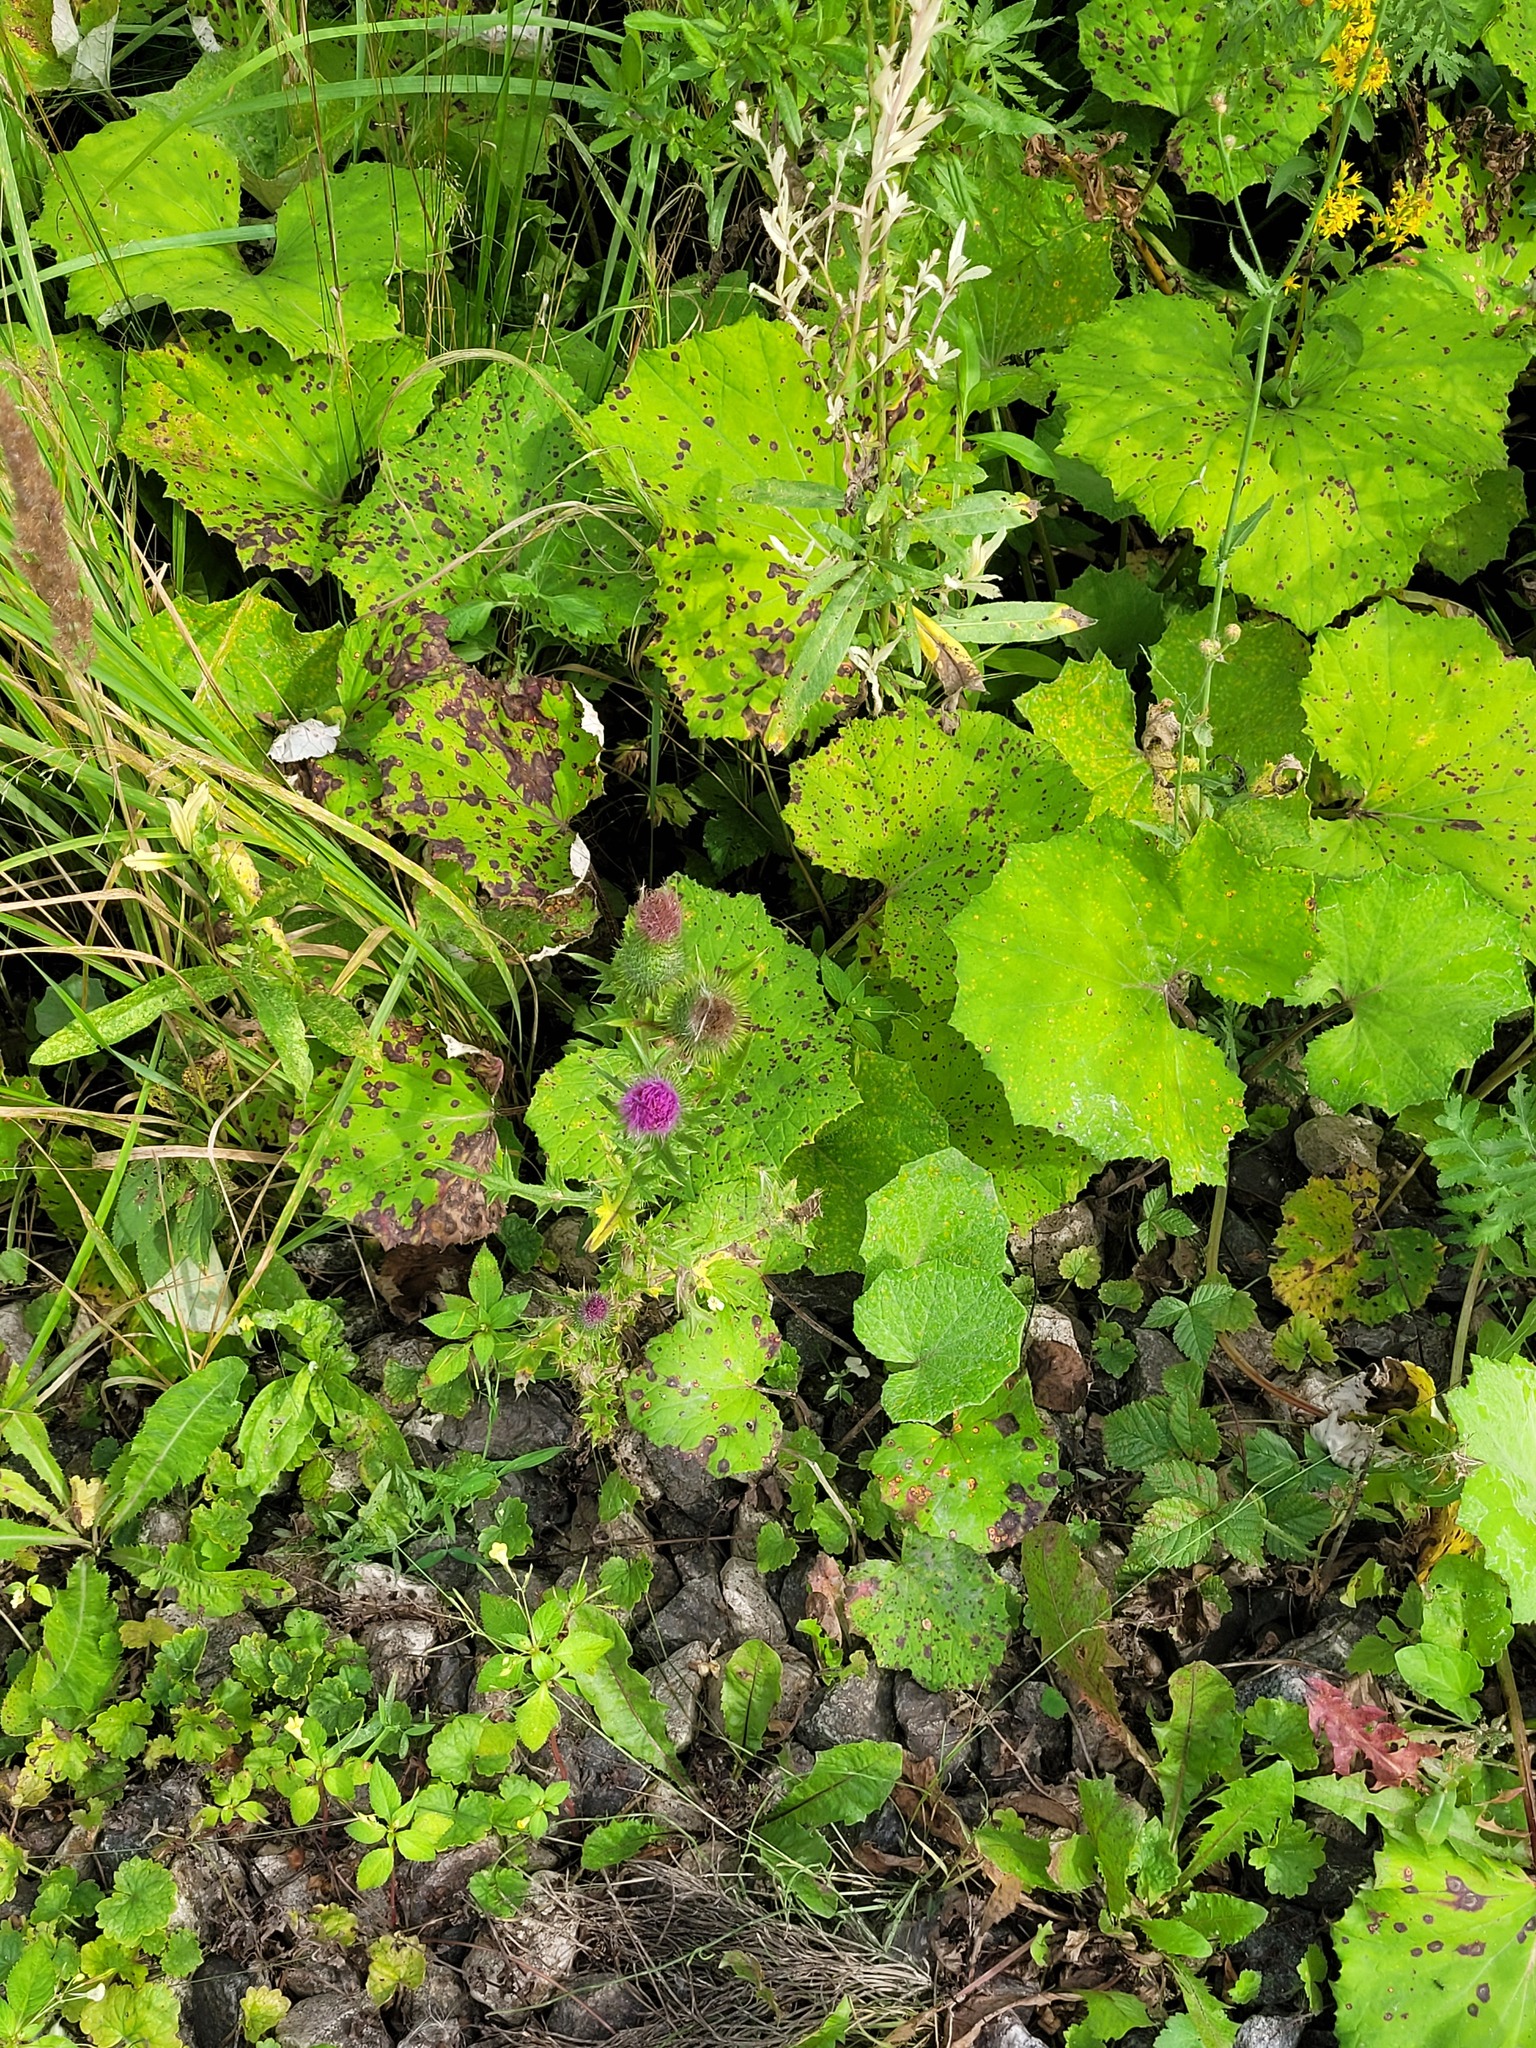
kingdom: Plantae
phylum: Tracheophyta
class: Magnoliopsida
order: Asterales
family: Asteraceae
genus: Cirsium
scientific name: Cirsium vulgare
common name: Bull thistle
